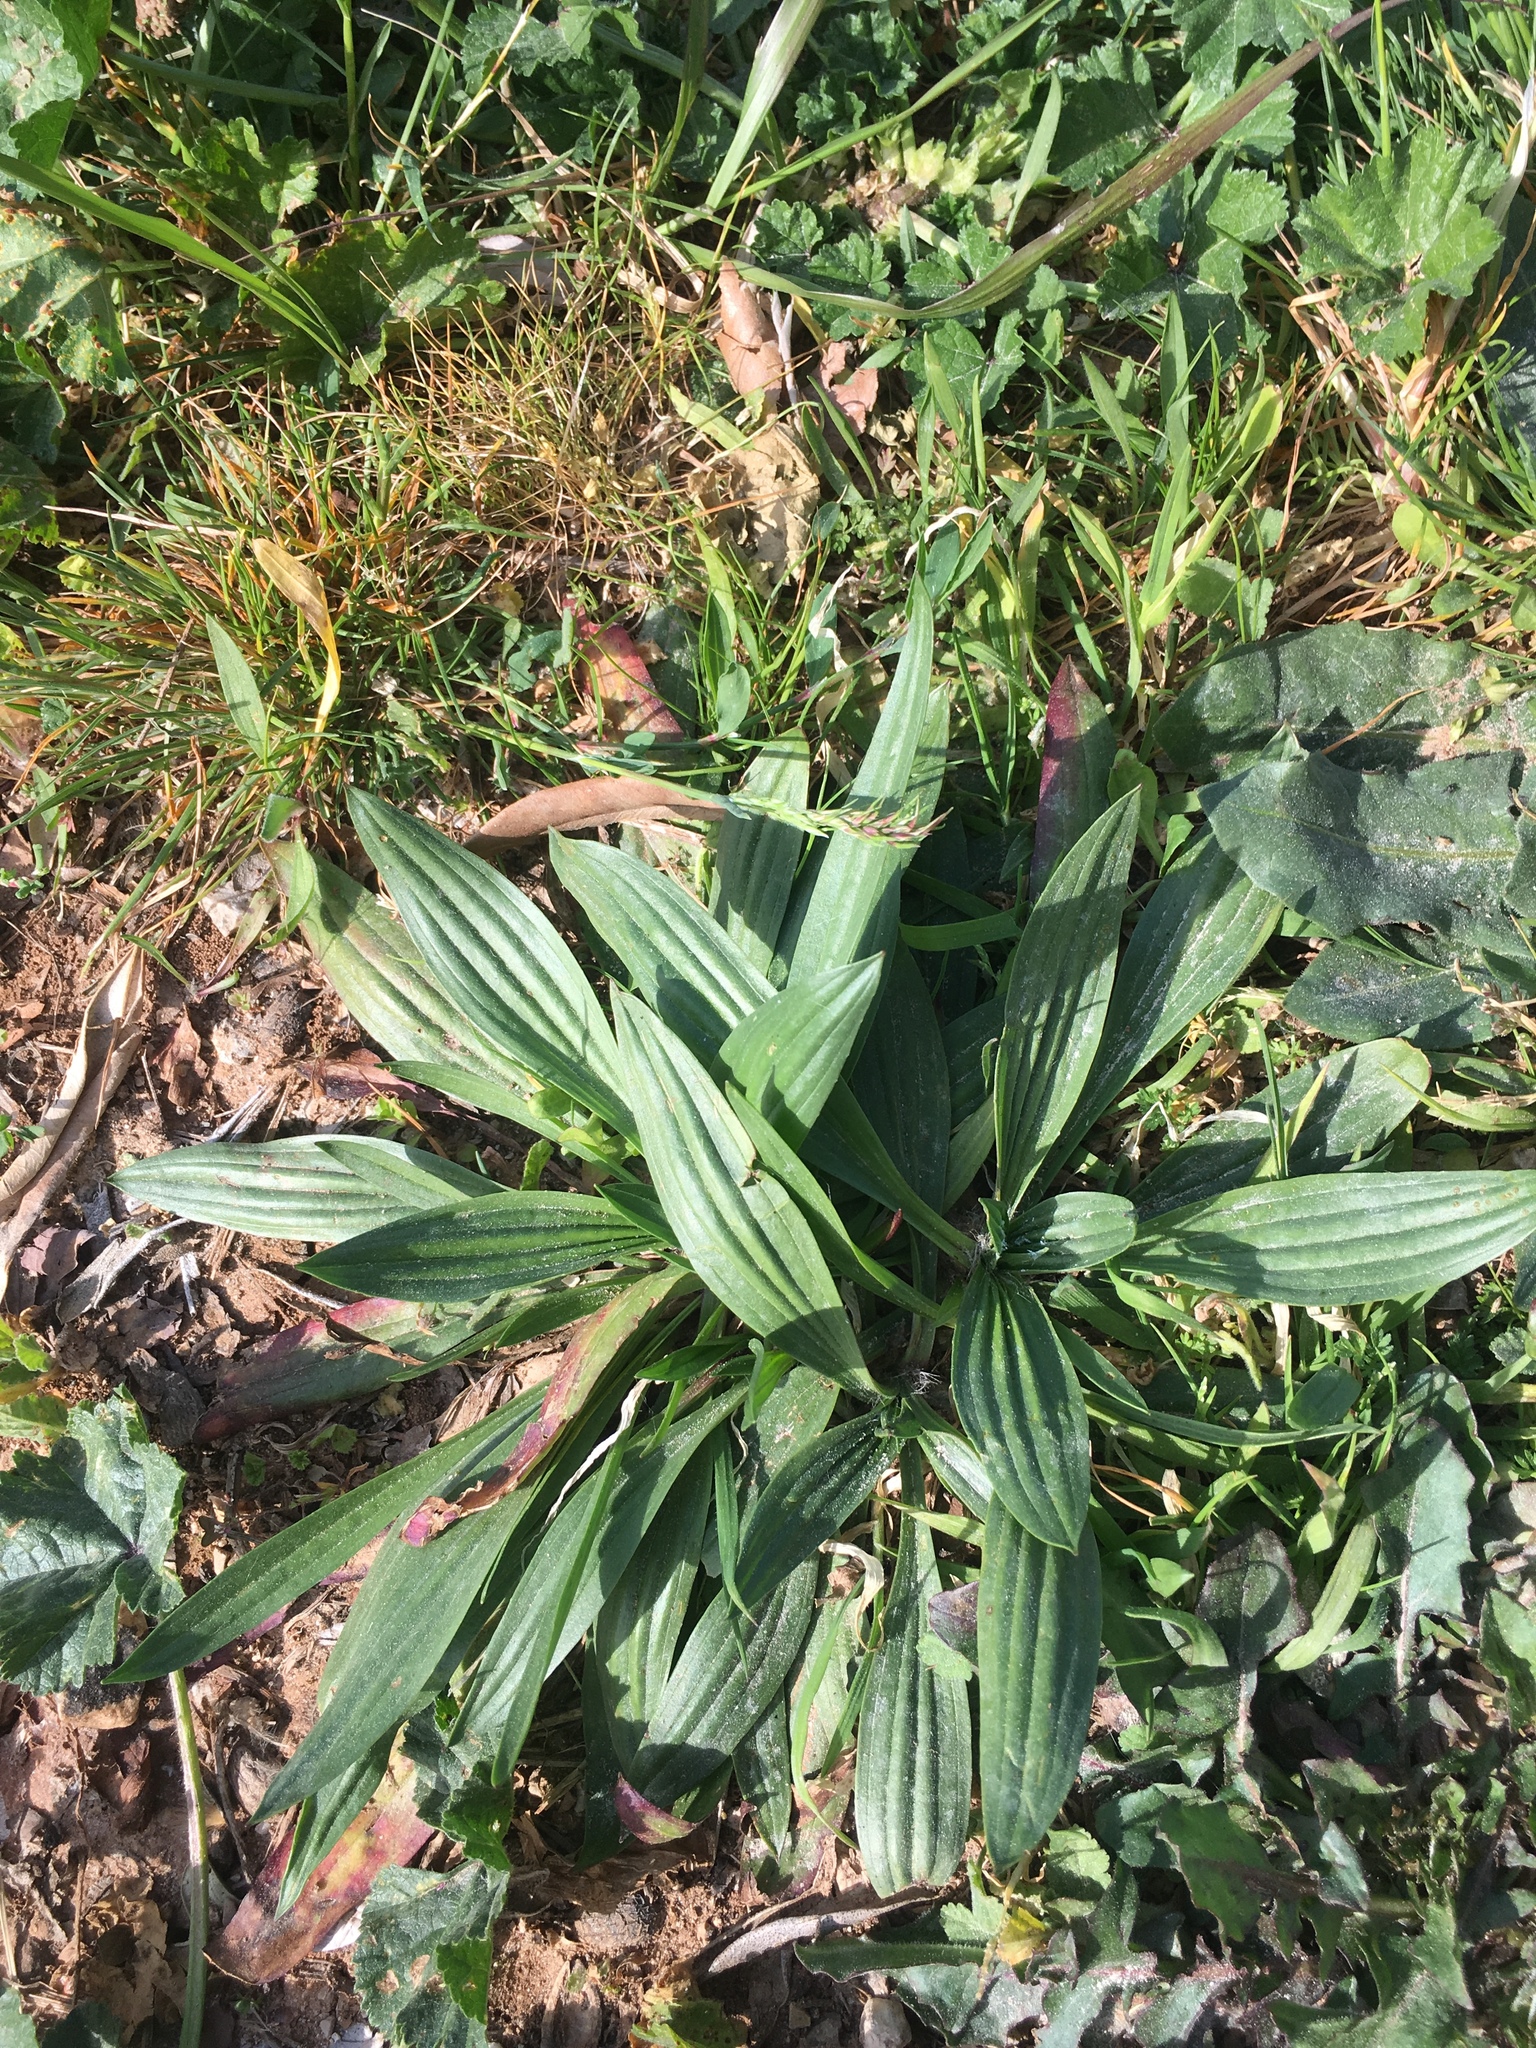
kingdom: Plantae
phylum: Tracheophyta
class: Magnoliopsida
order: Lamiales
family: Plantaginaceae
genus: Plantago
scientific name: Plantago lanceolata
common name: Ribwort plantain
